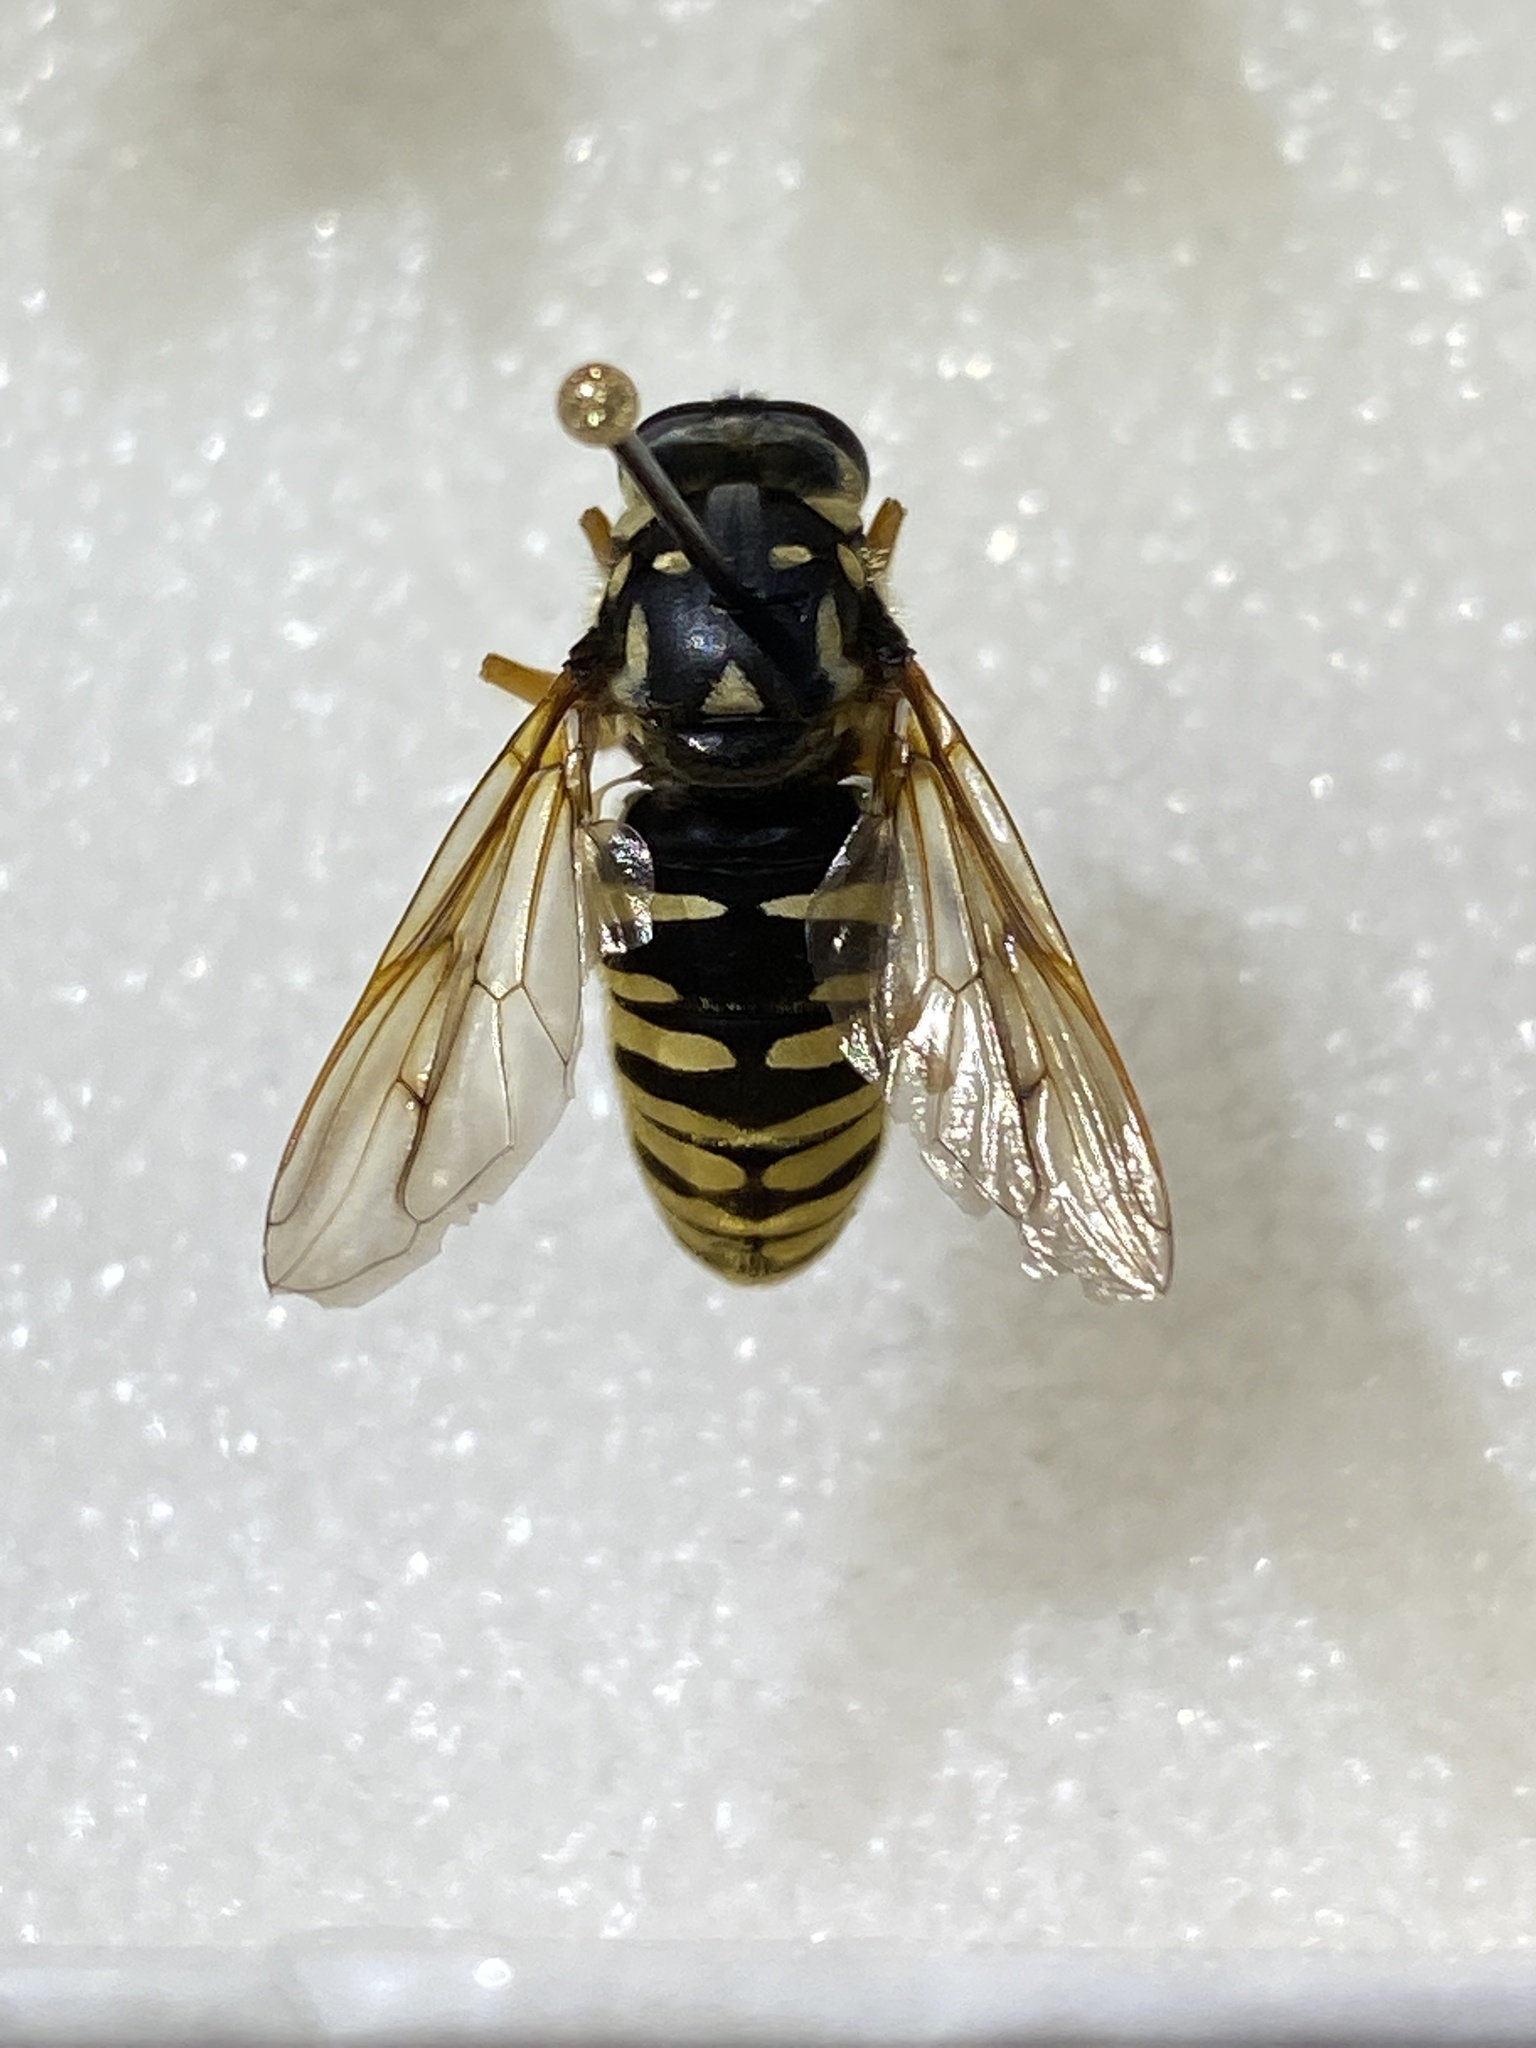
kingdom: Animalia
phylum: Arthropoda
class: Insecta
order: Diptera
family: Syrphidae
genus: Temnostoma
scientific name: Temnostoma alternans
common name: Wasp-like falsehorn
